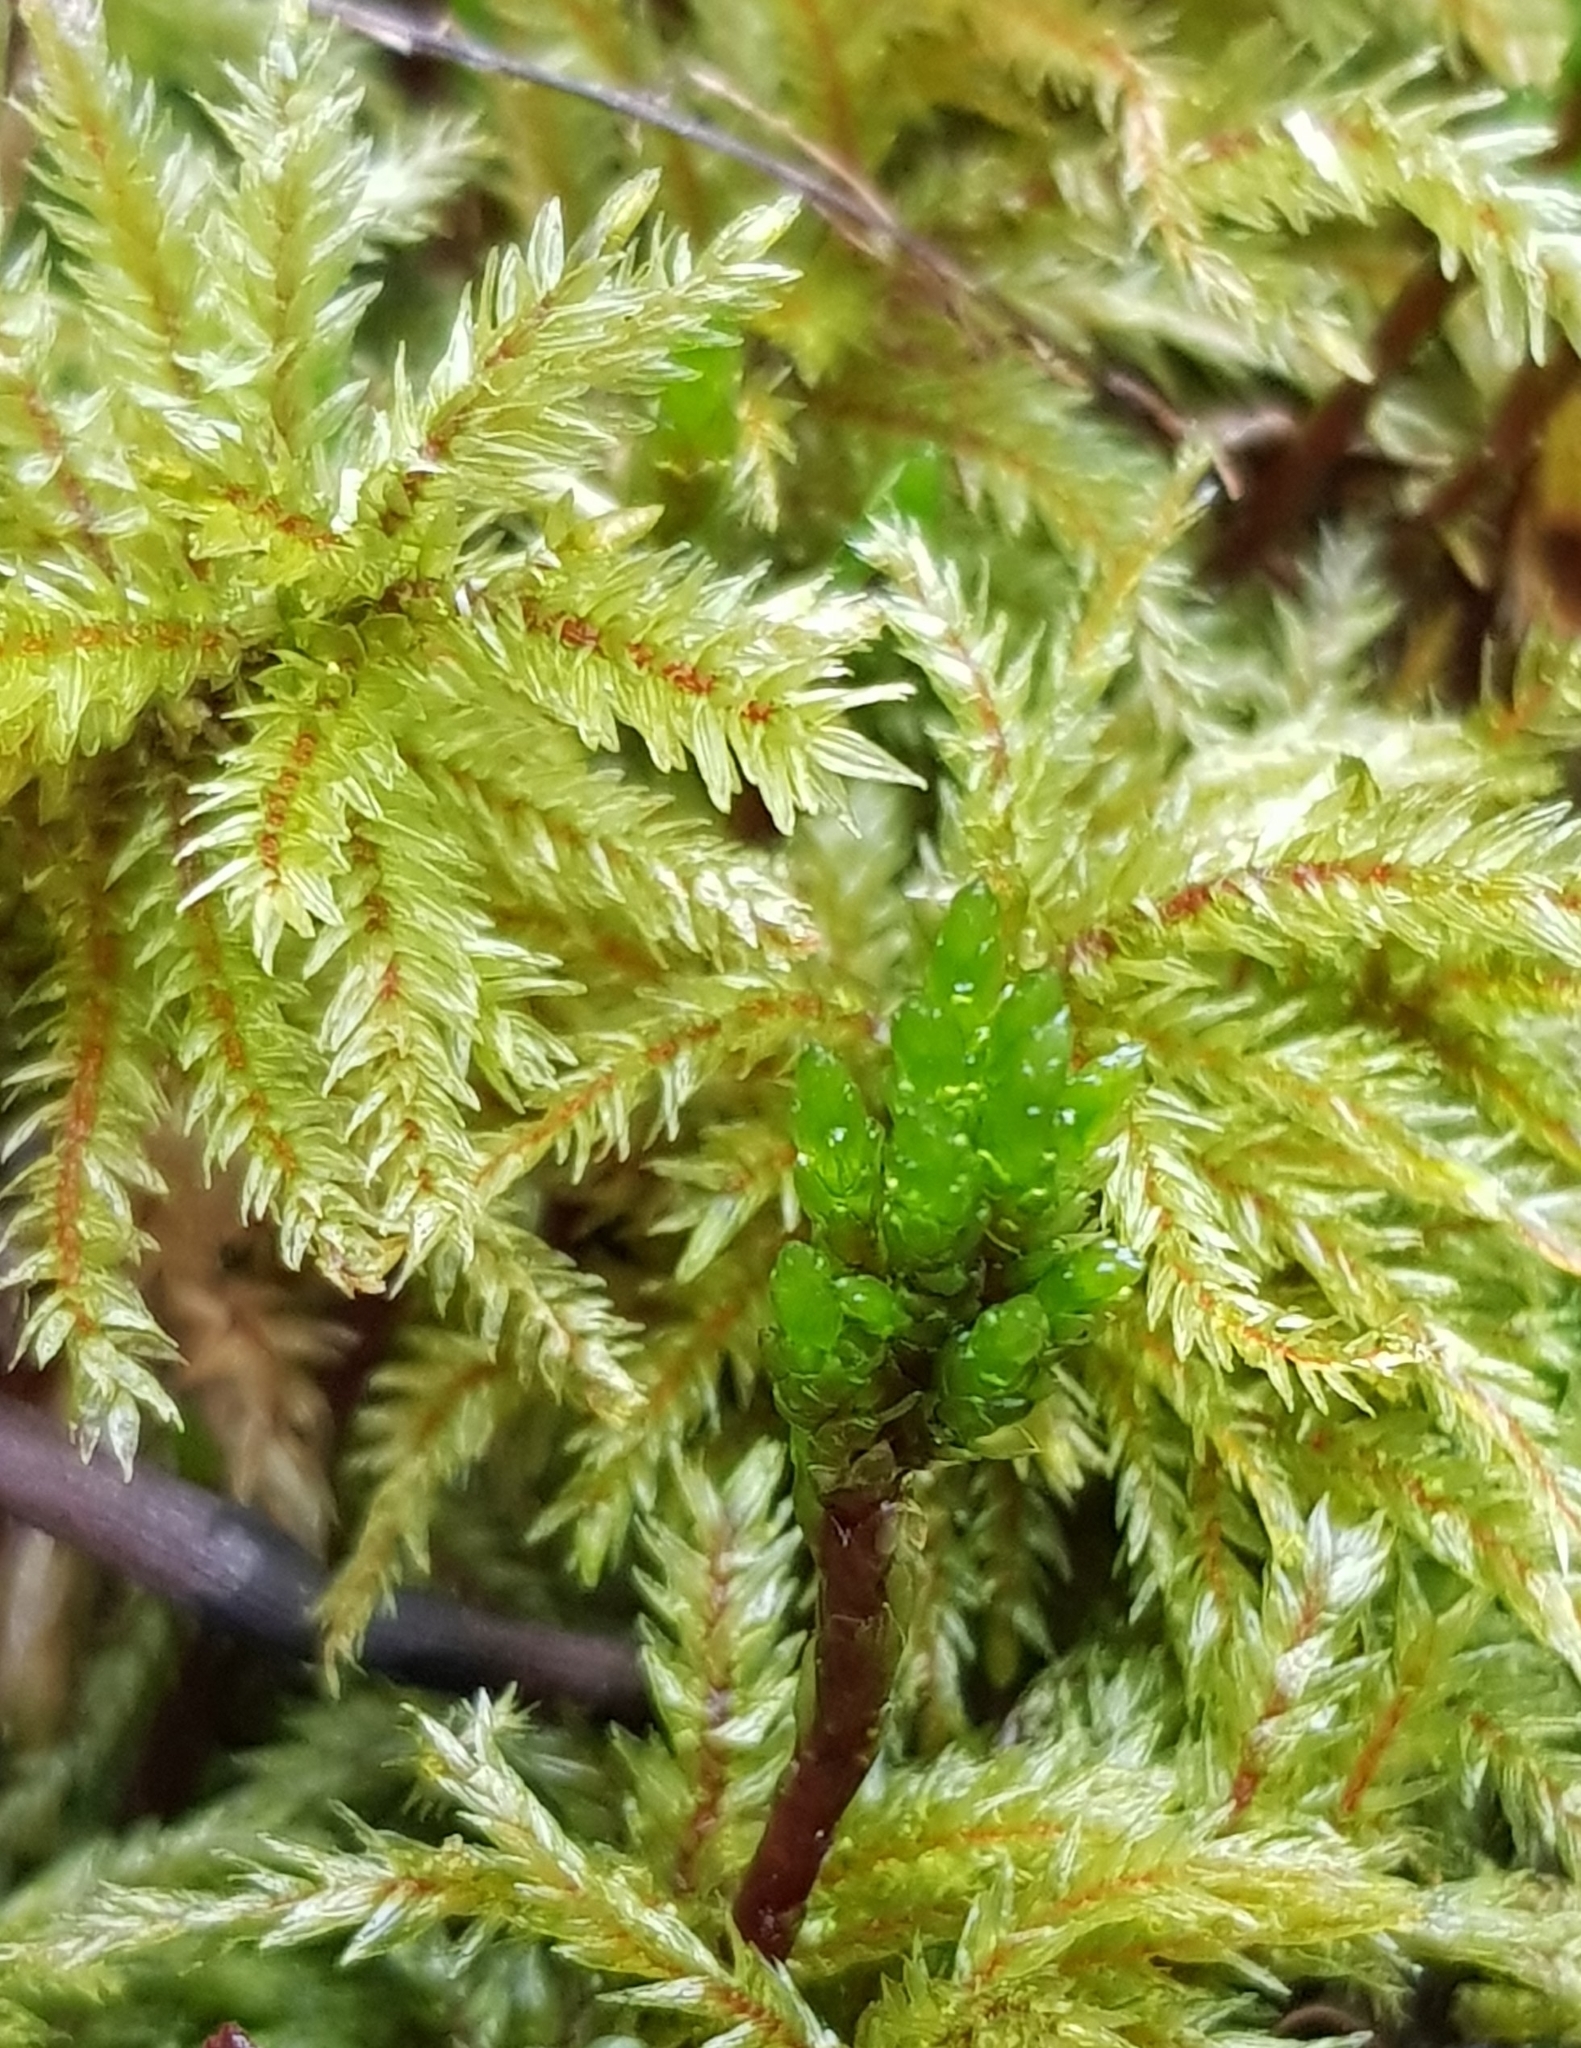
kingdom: Plantae
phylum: Bryophyta
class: Bryopsida
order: Hypnales
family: Climaciaceae
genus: Climacium
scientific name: Climacium dendroides
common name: Northern tree moss
